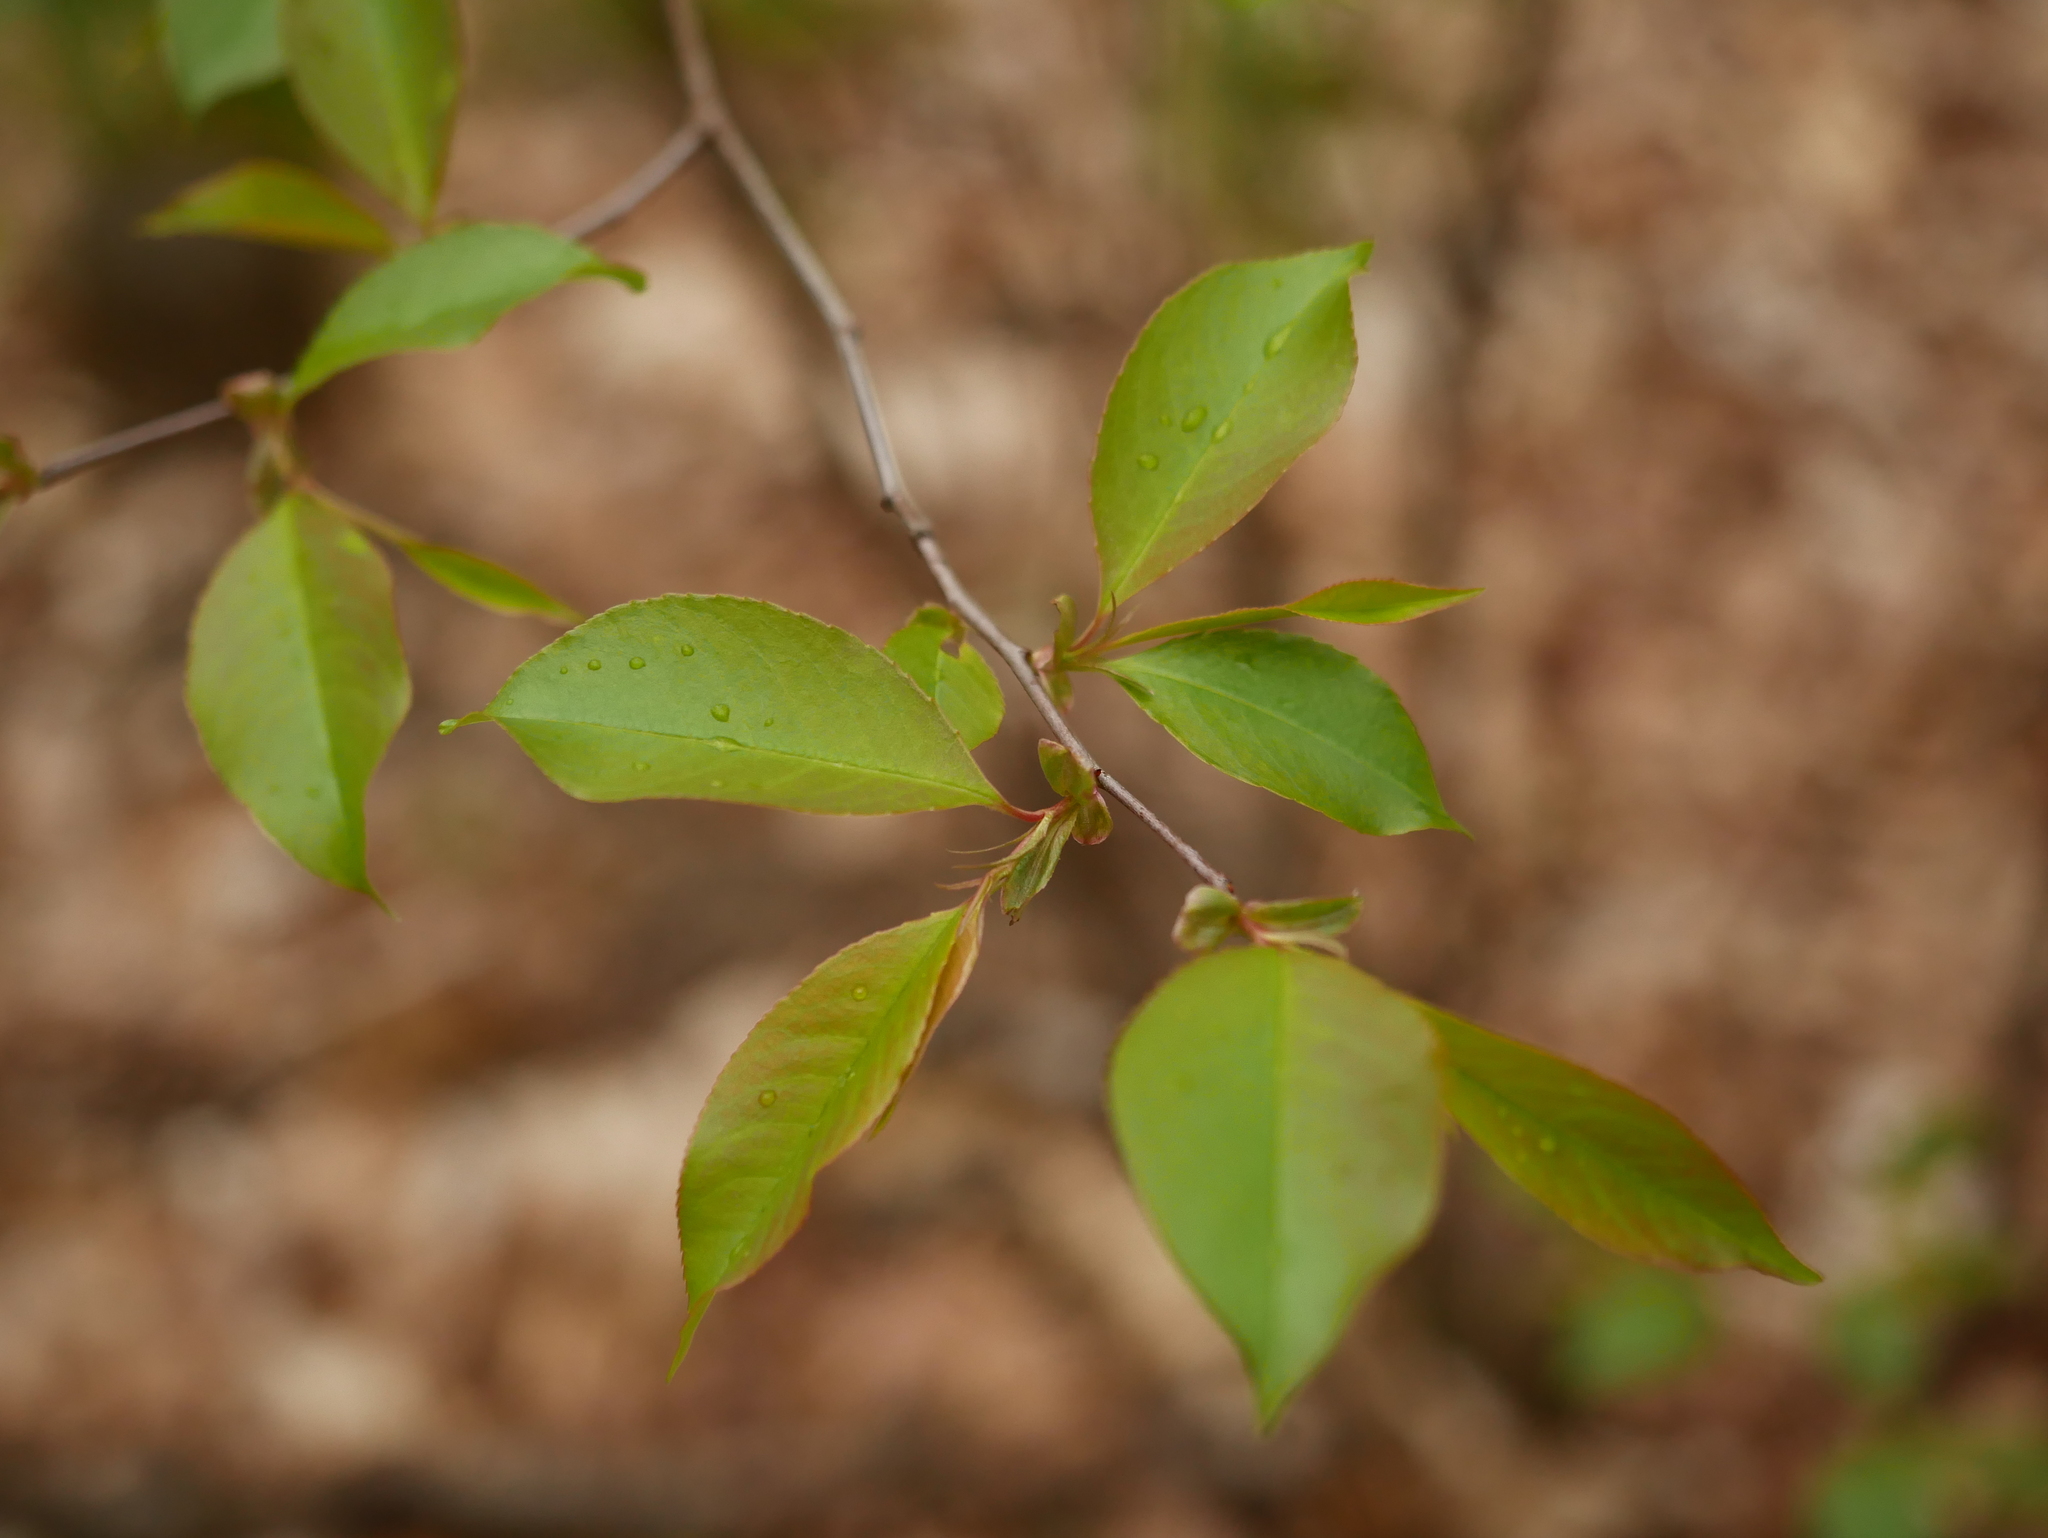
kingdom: Plantae
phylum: Tracheophyta
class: Magnoliopsida
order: Rosales
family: Rosaceae
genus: Prunus
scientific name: Prunus serotina
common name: Black cherry
